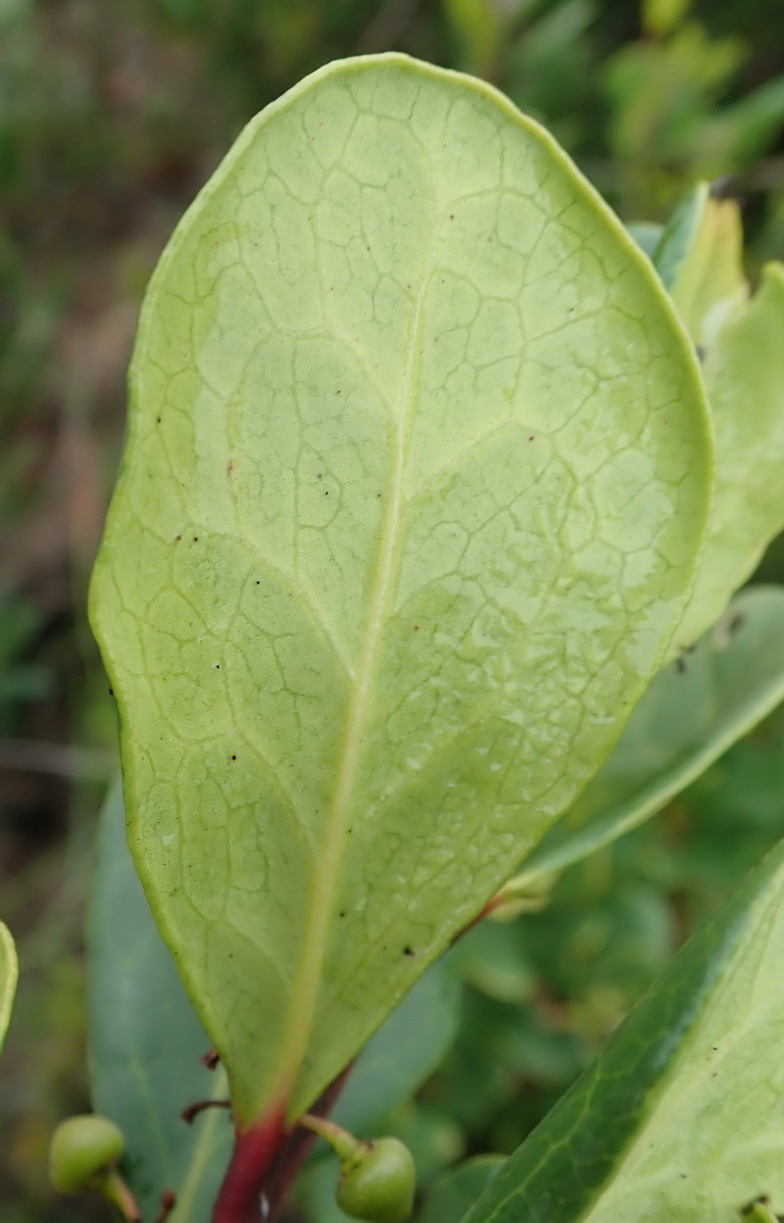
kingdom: Plantae
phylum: Tracheophyta
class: Magnoliopsida
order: Ericales
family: Ebenaceae
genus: Euclea
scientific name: Euclea racemosa
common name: Dune guarri
